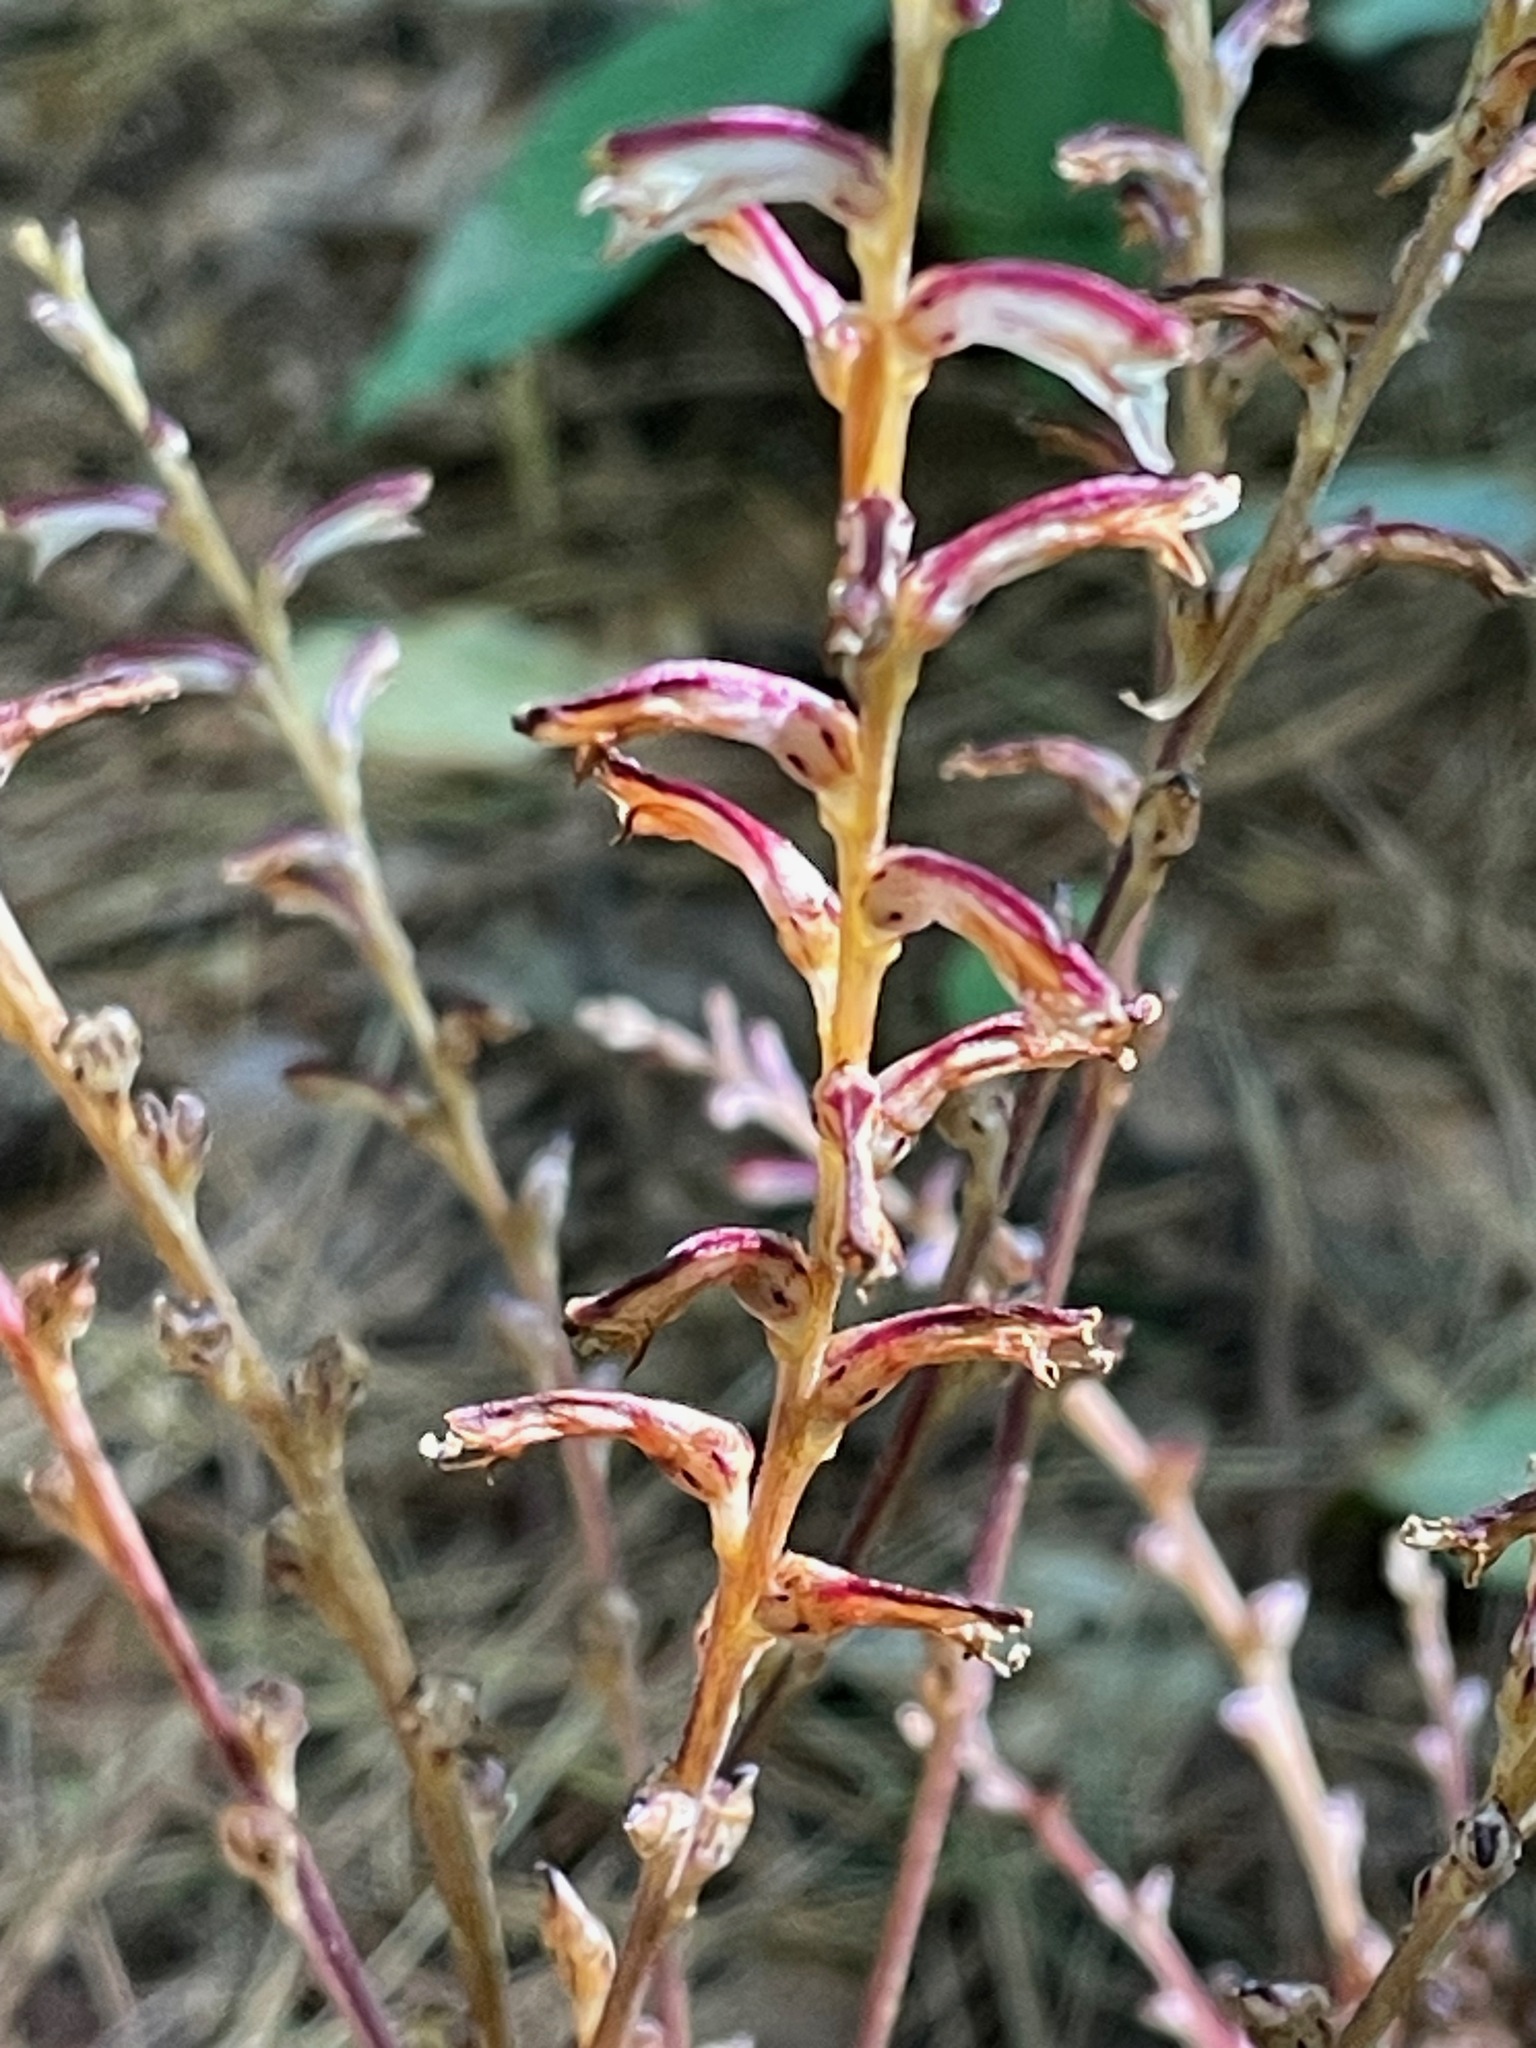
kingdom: Plantae
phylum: Tracheophyta
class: Magnoliopsida
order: Lamiales
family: Orobanchaceae
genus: Epifagus
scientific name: Epifagus virginiana
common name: Beechdrops
